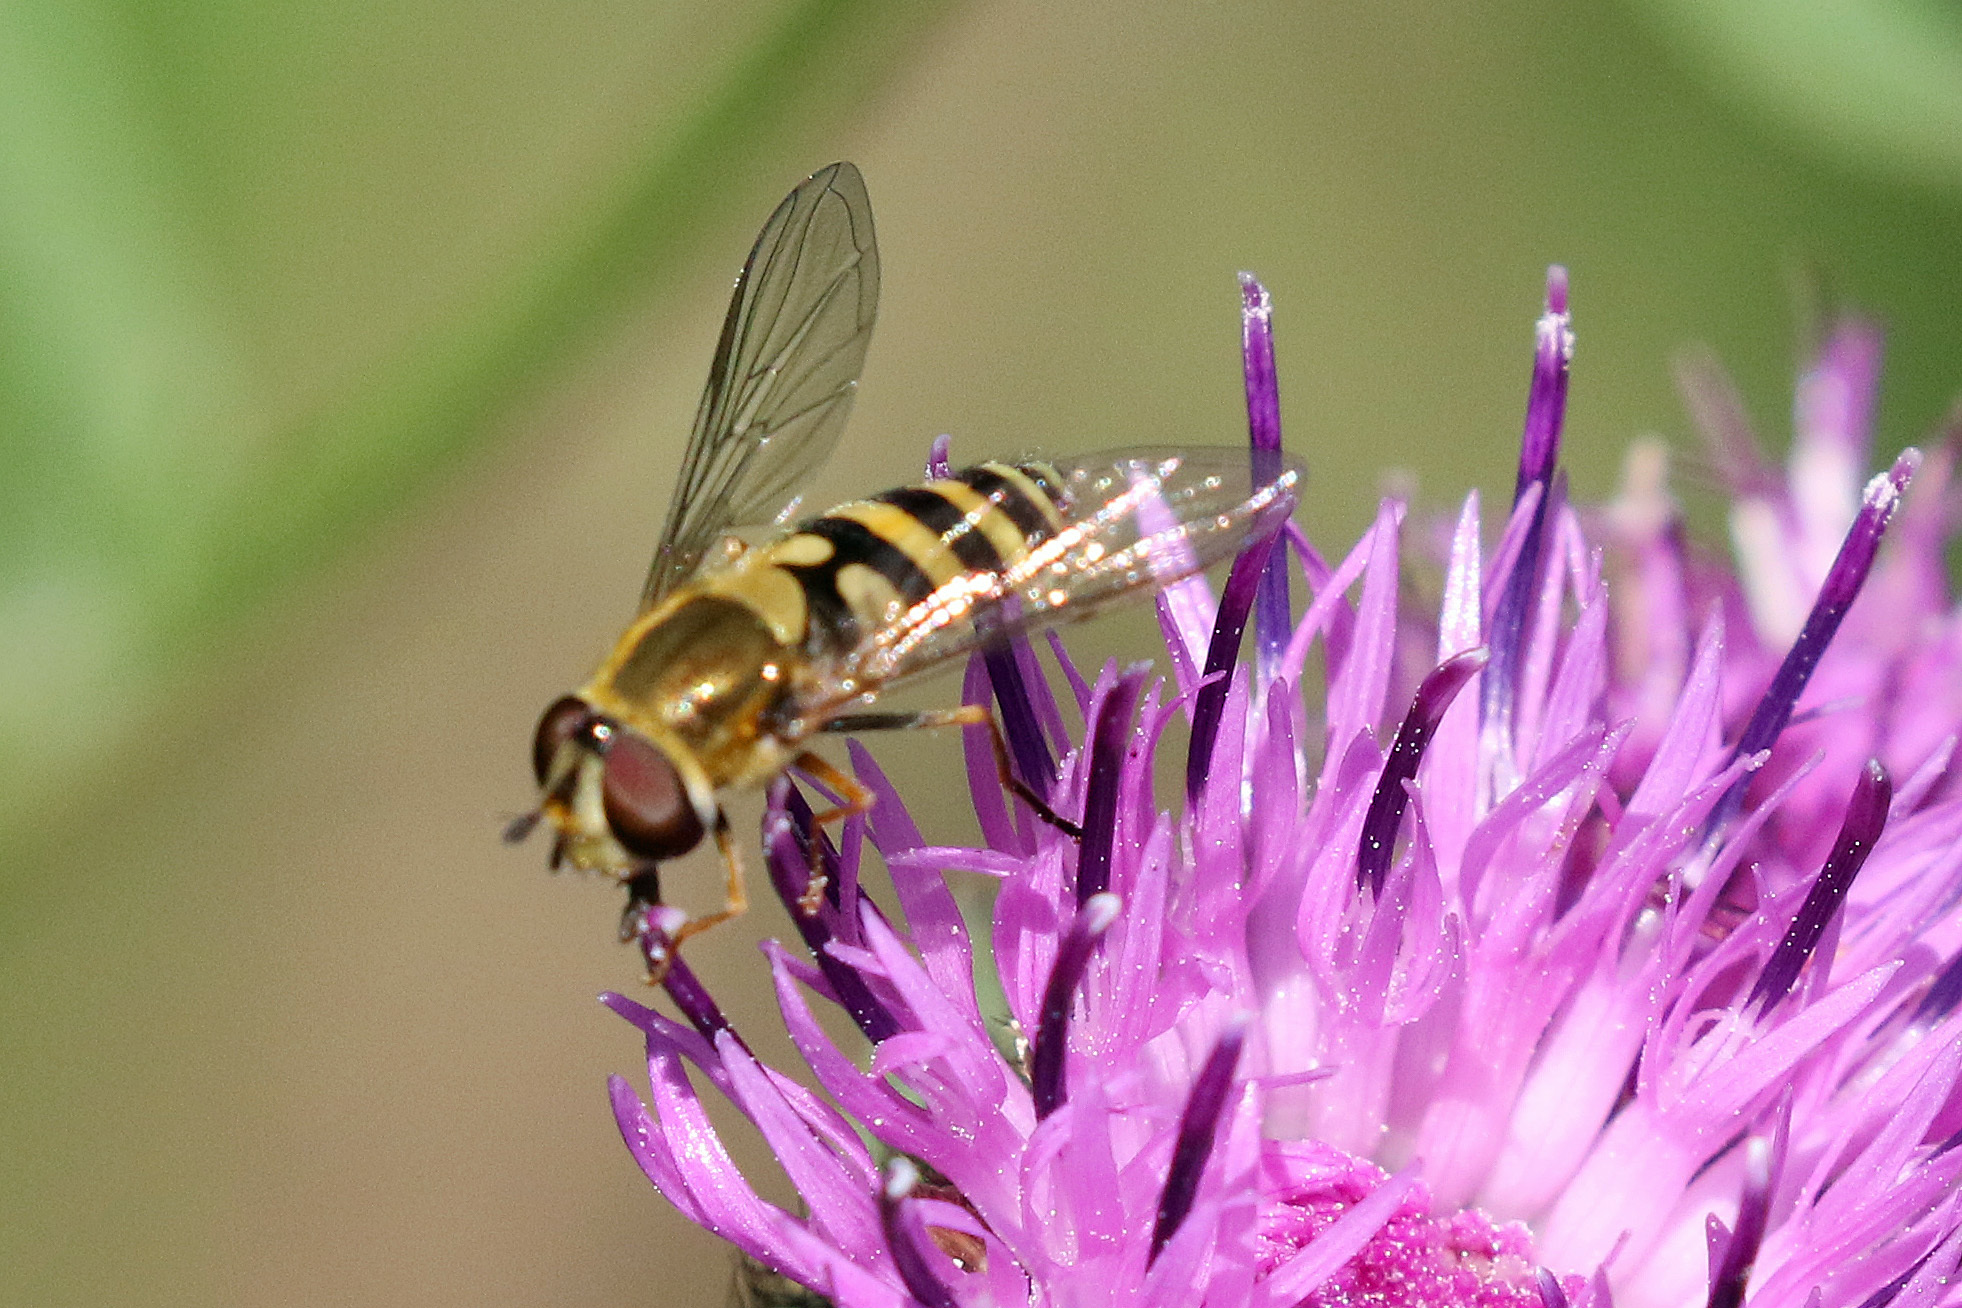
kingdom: Animalia
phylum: Arthropoda
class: Insecta
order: Diptera
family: Syrphidae
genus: Syrphus
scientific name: Syrphus
